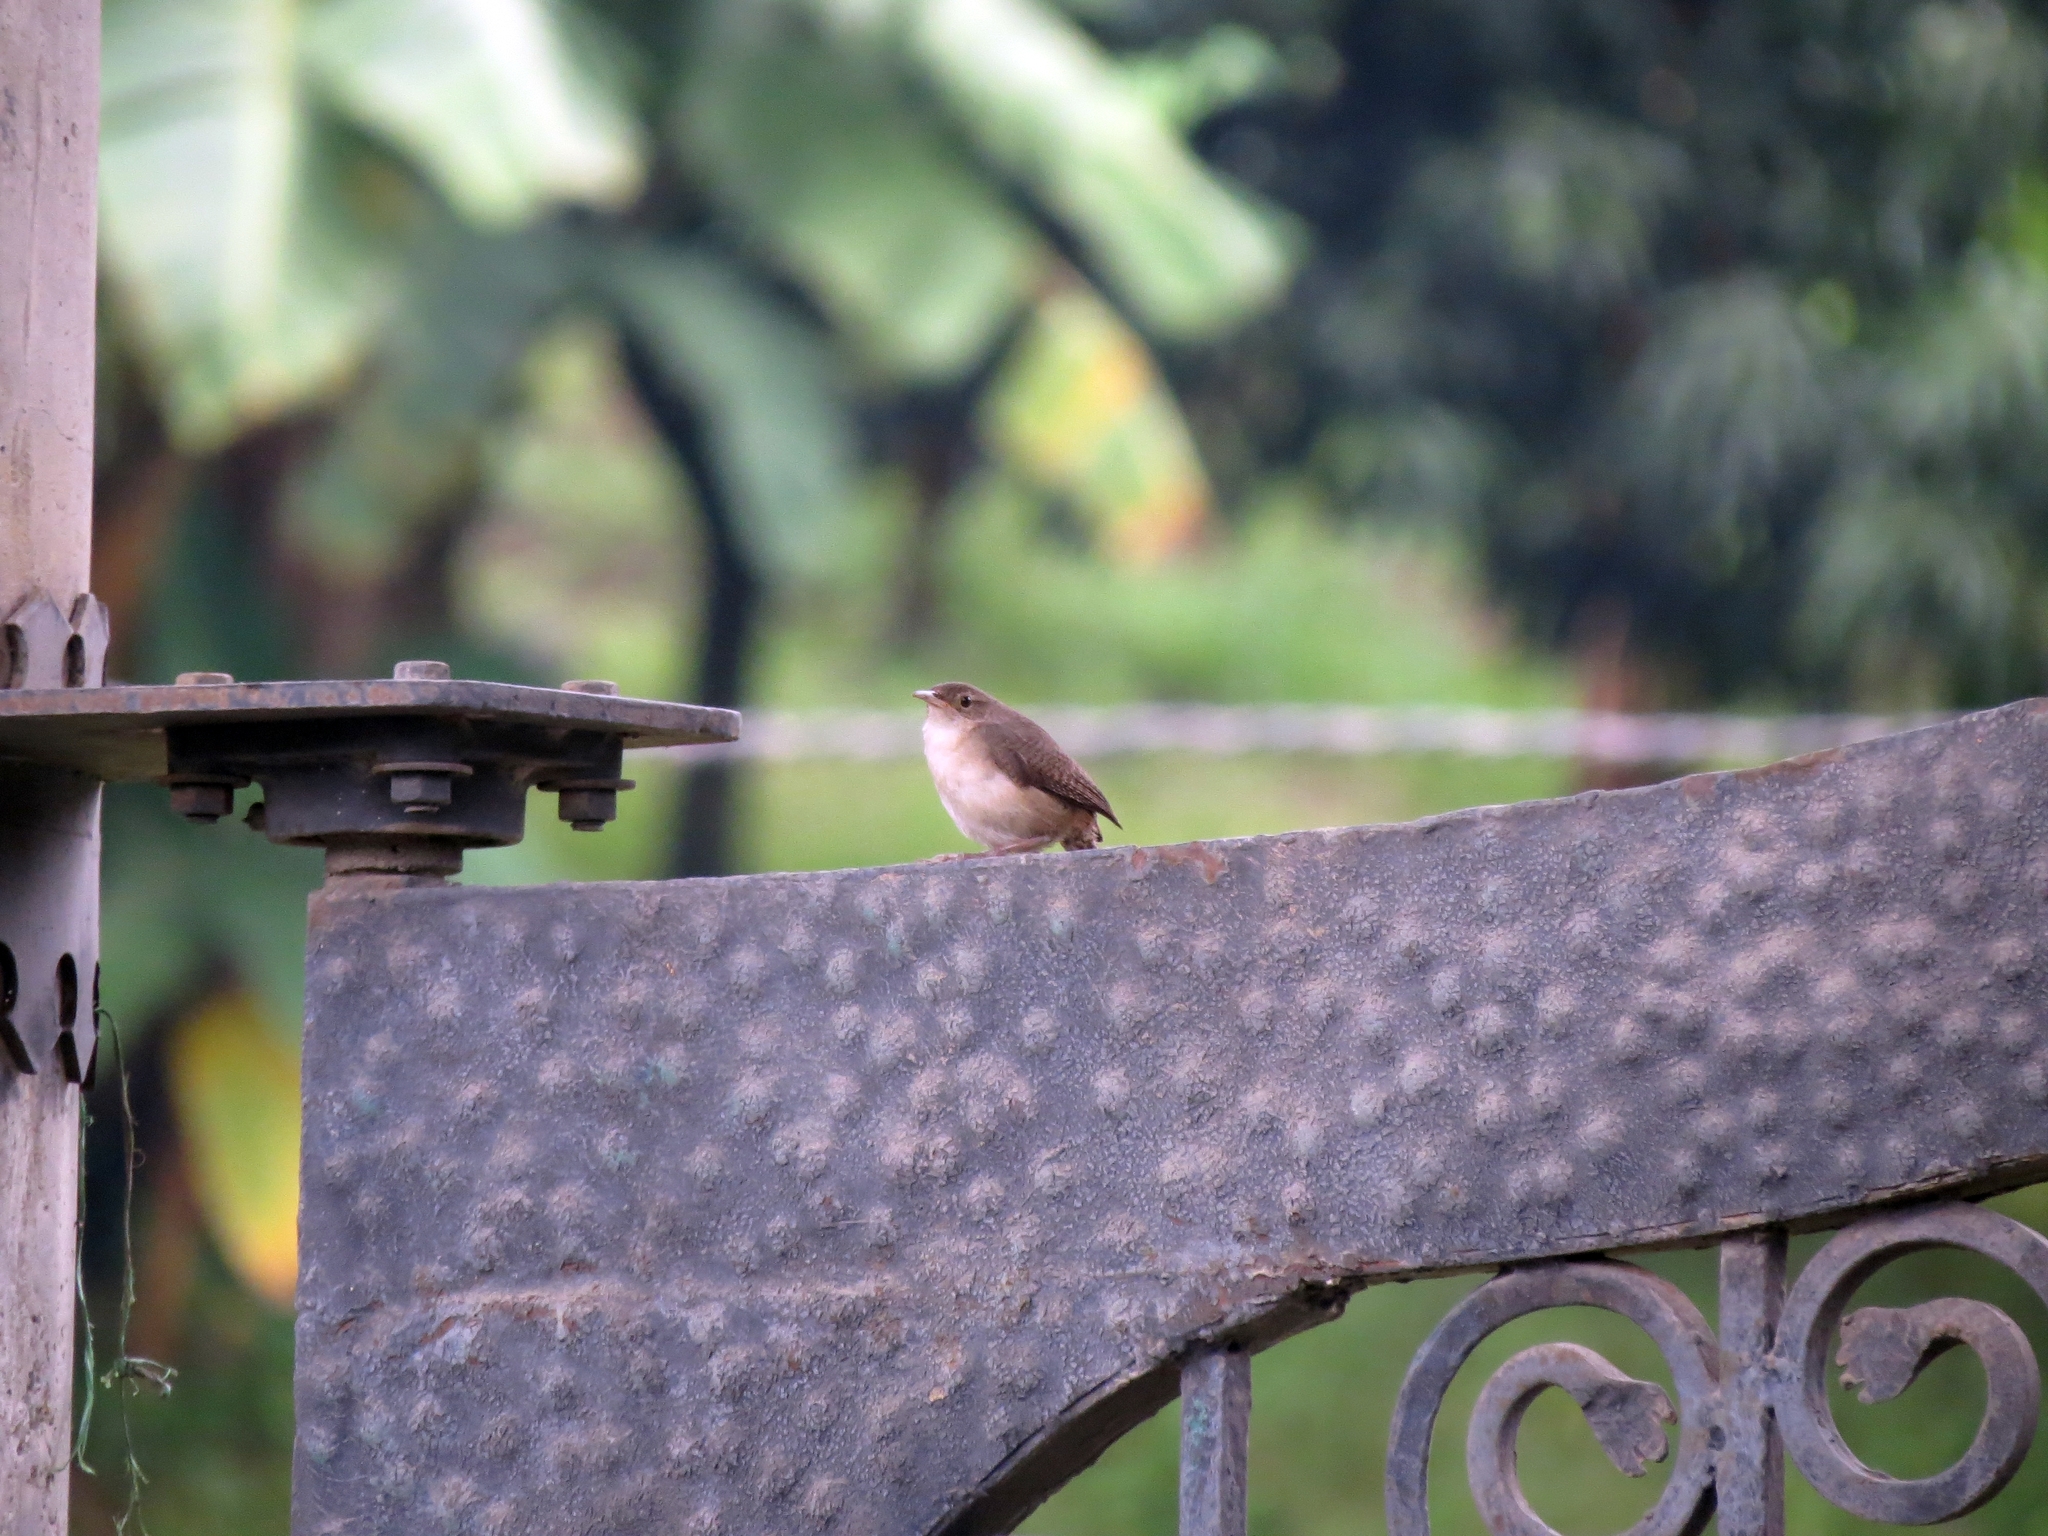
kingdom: Animalia
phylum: Chordata
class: Aves
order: Passeriformes
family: Troglodytidae
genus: Troglodytes
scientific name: Troglodytes aedon
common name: House wren
